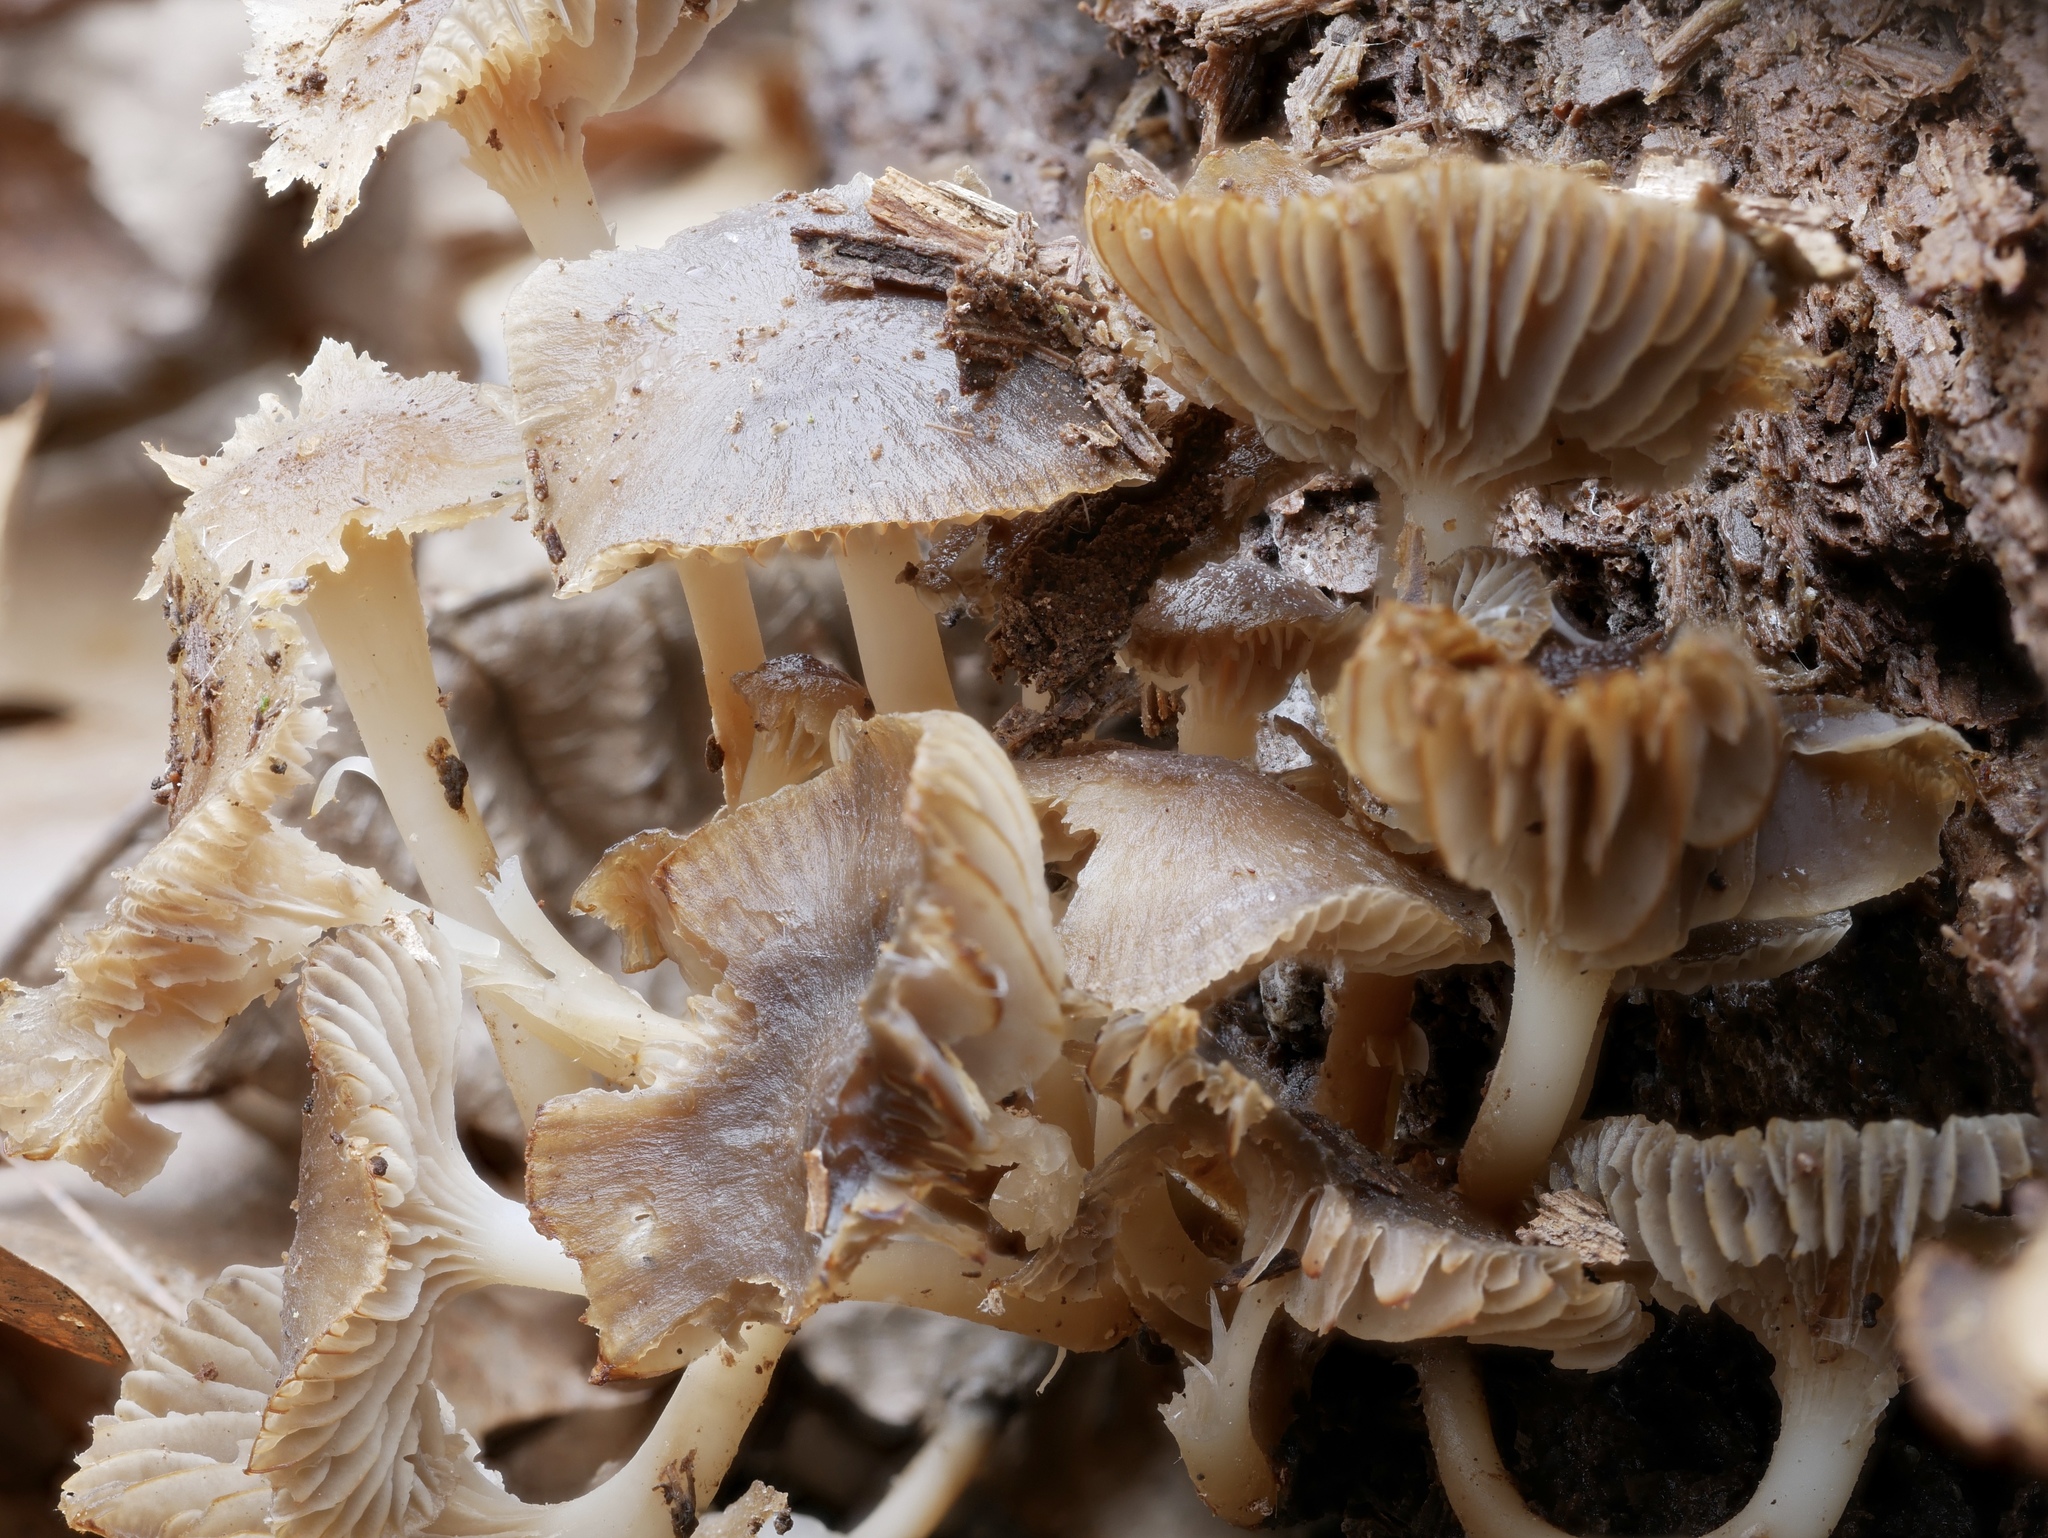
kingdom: Fungi
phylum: Basidiomycota
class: Agaricomycetes
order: Agaricales
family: Mycenaceae
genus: Mycena
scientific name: Mycena overholtsii
